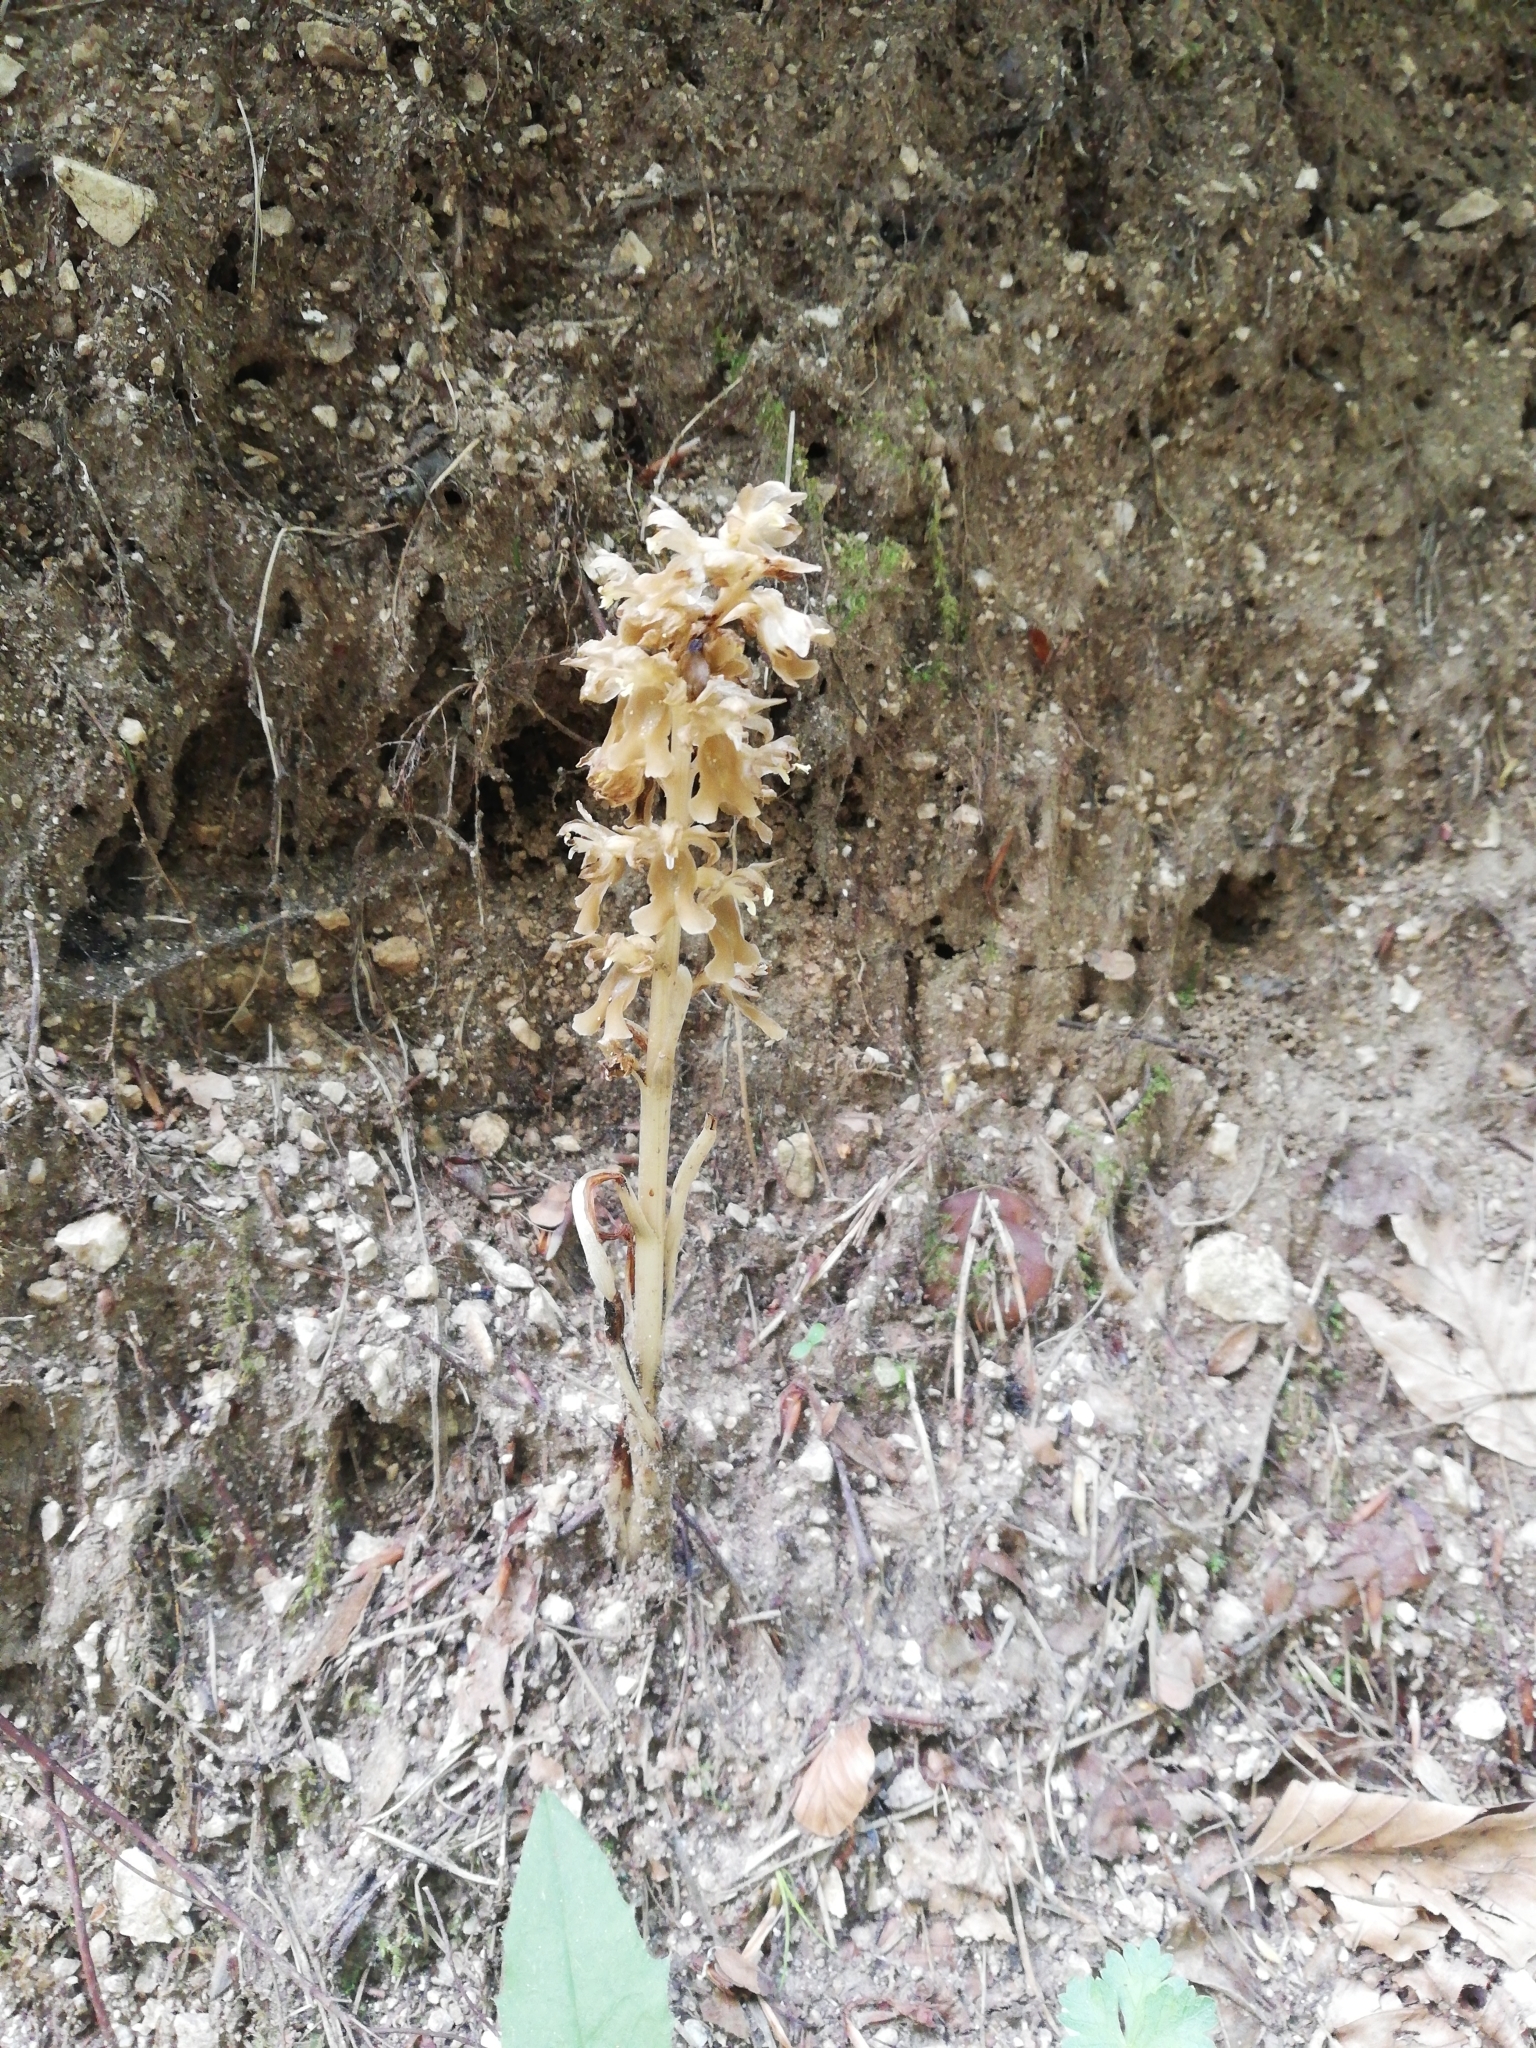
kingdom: Plantae
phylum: Tracheophyta
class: Liliopsida
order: Asparagales
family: Orchidaceae
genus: Neottia
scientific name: Neottia nidus-avis
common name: Bird's-nest orchid
